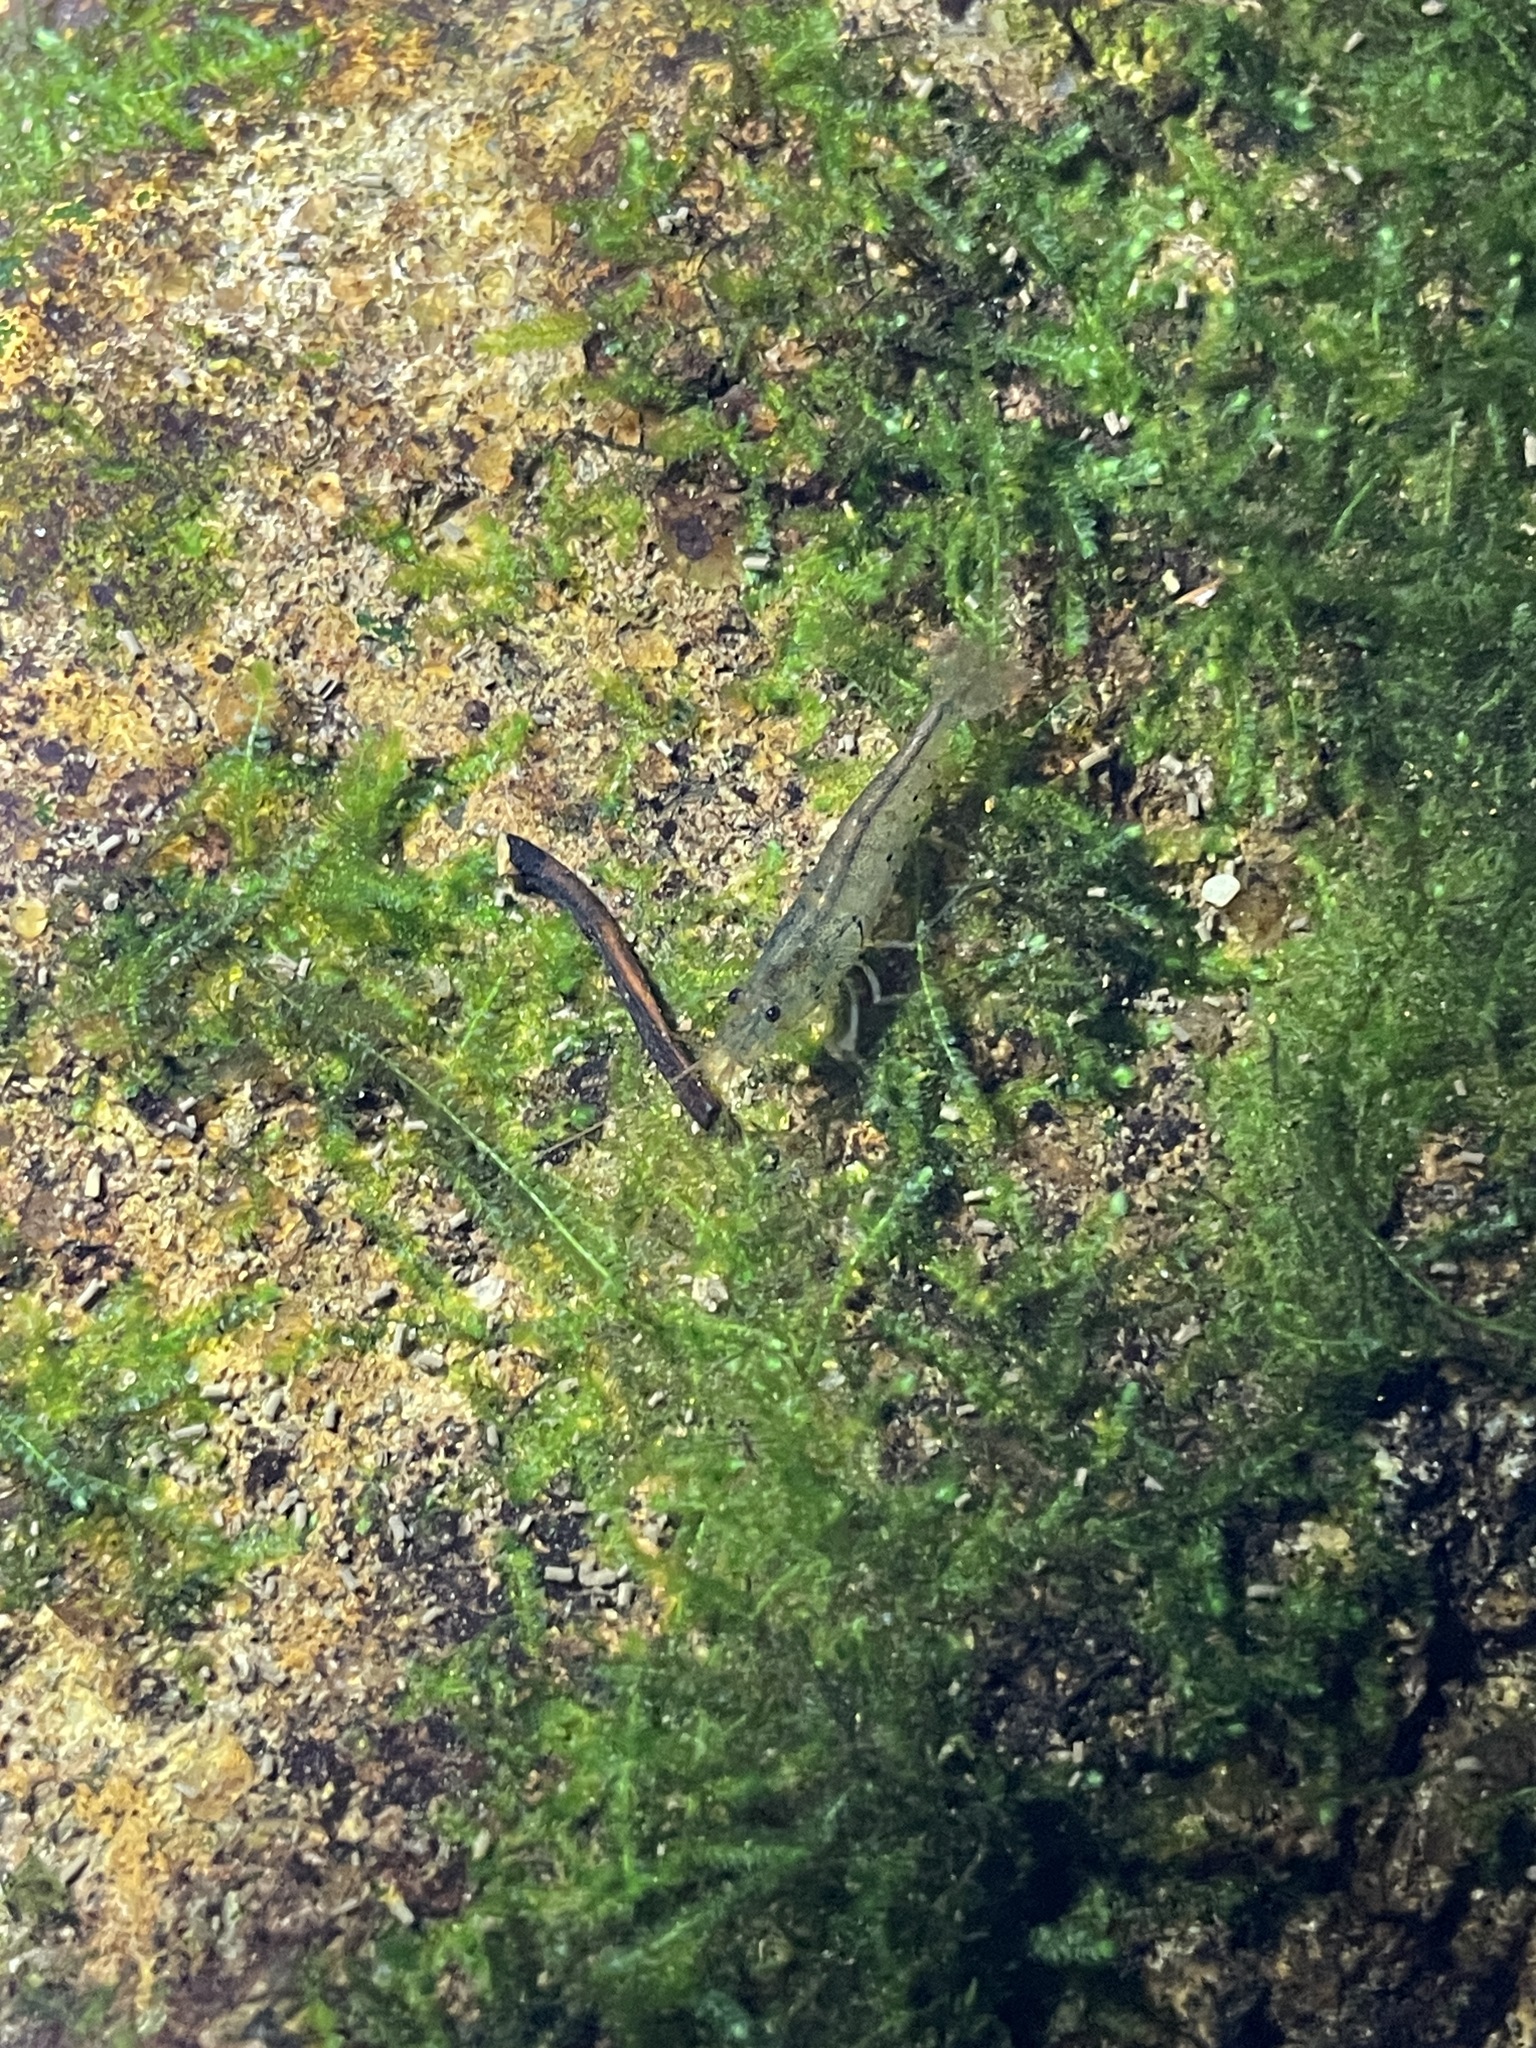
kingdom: Animalia
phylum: Arthropoda
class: Malacostraca
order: Decapoda
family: Atyidae
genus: Caridina
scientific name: Caridina cantonensis
